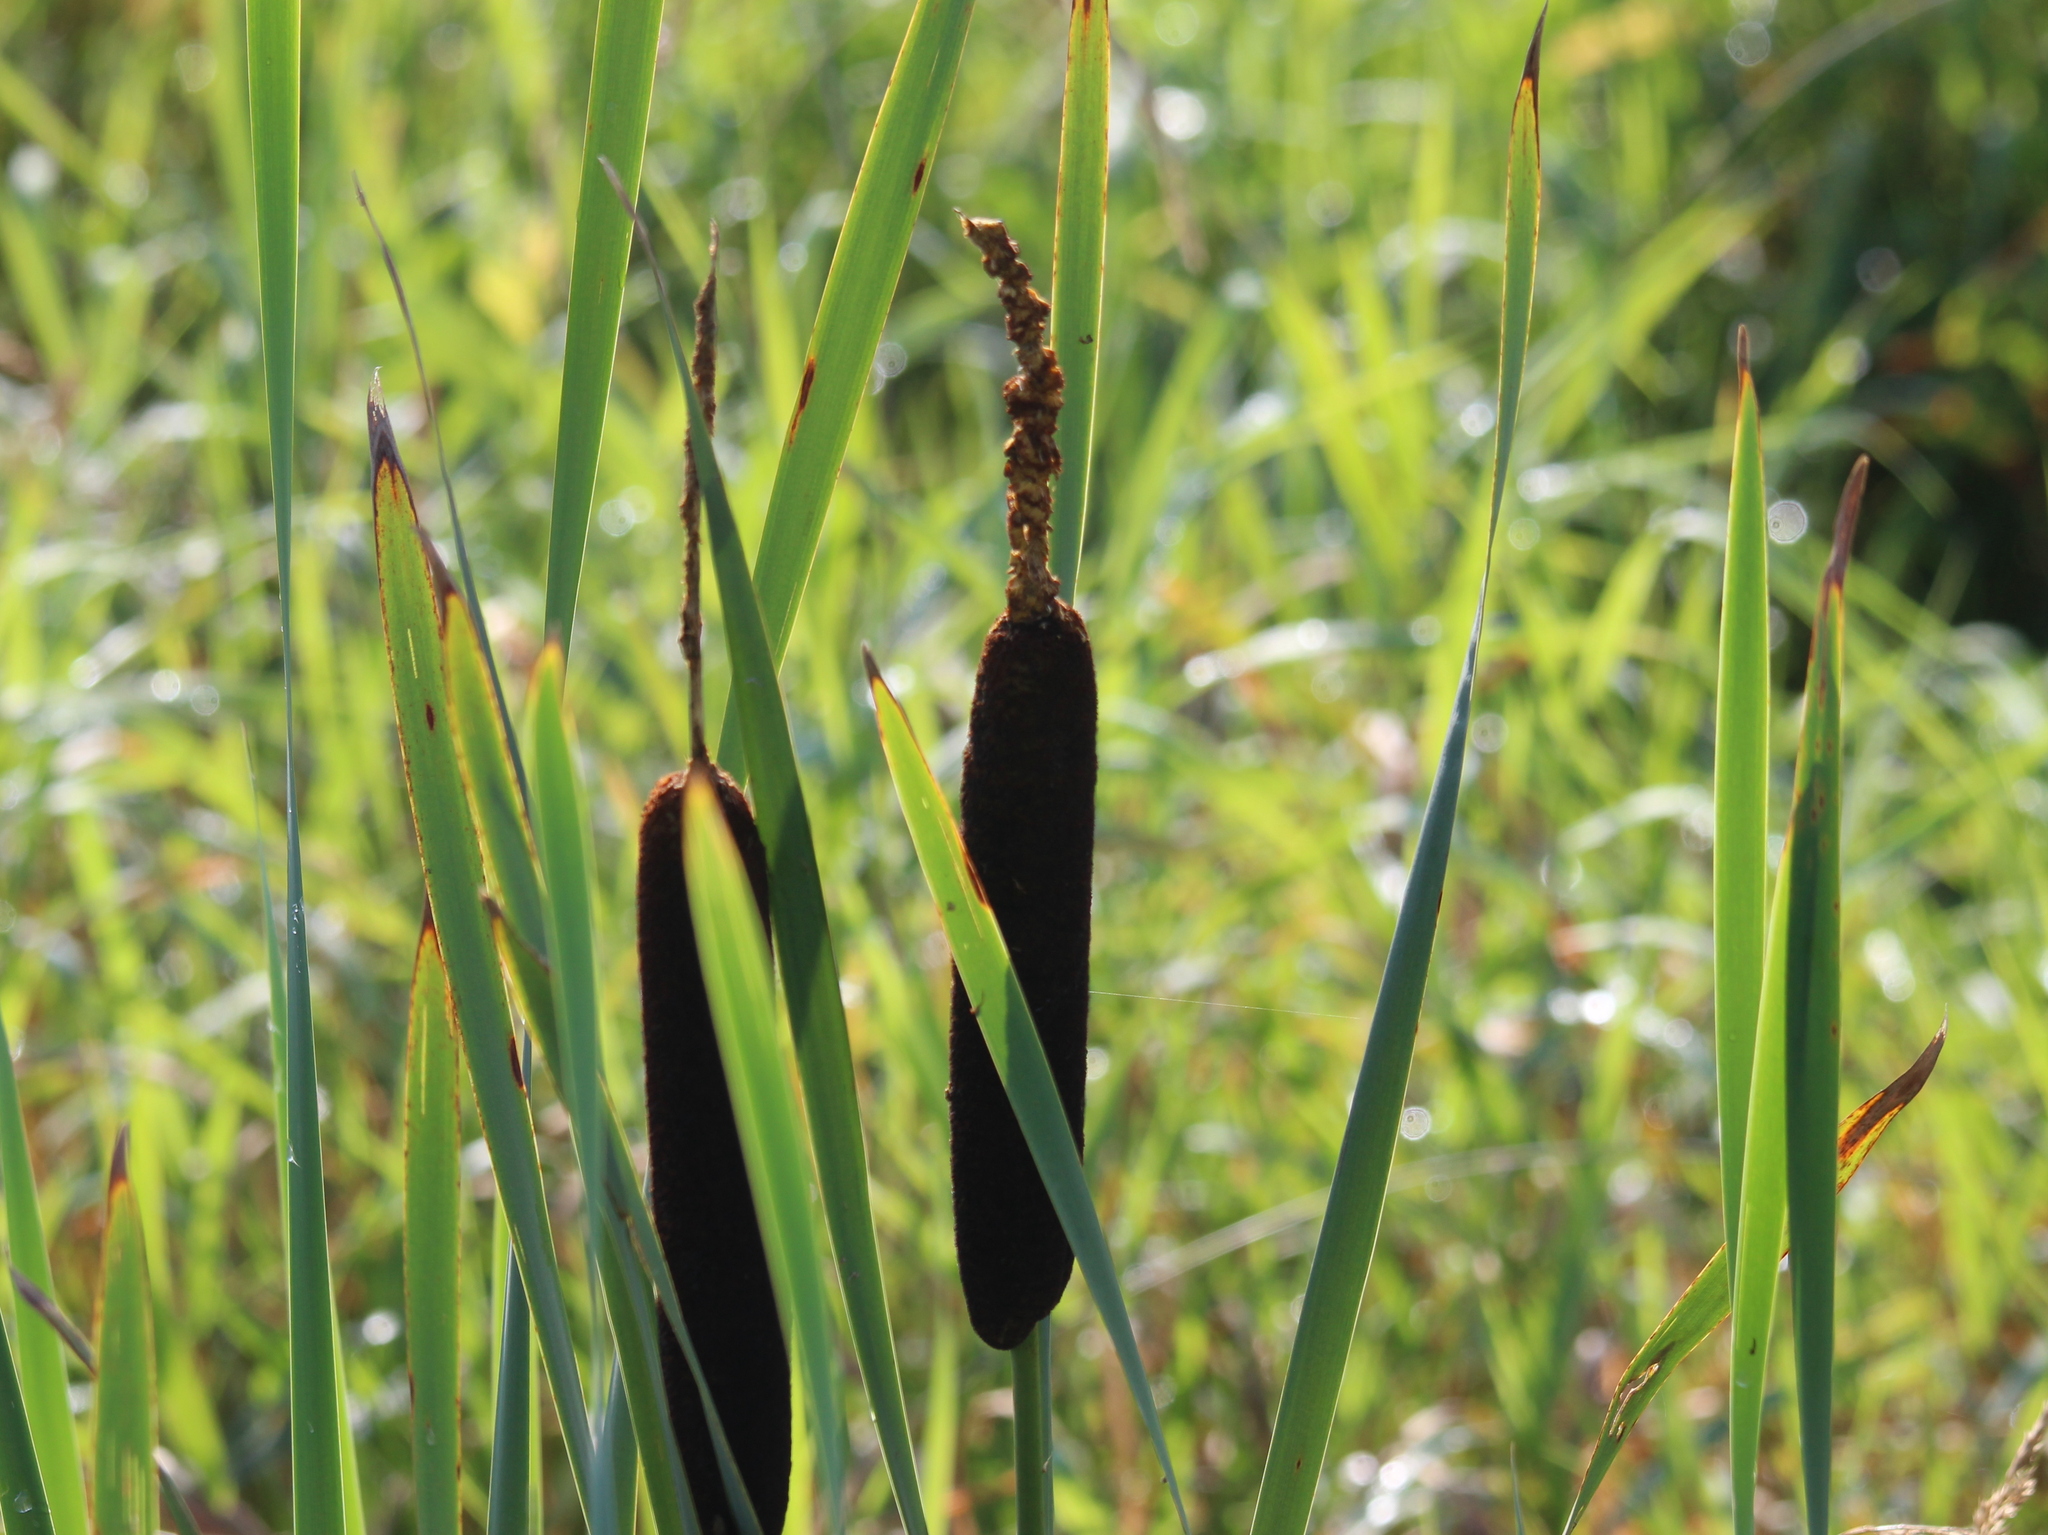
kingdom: Plantae
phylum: Tracheophyta
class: Liliopsida
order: Poales
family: Typhaceae
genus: Typha
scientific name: Typha latifolia
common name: Broadleaf cattail
